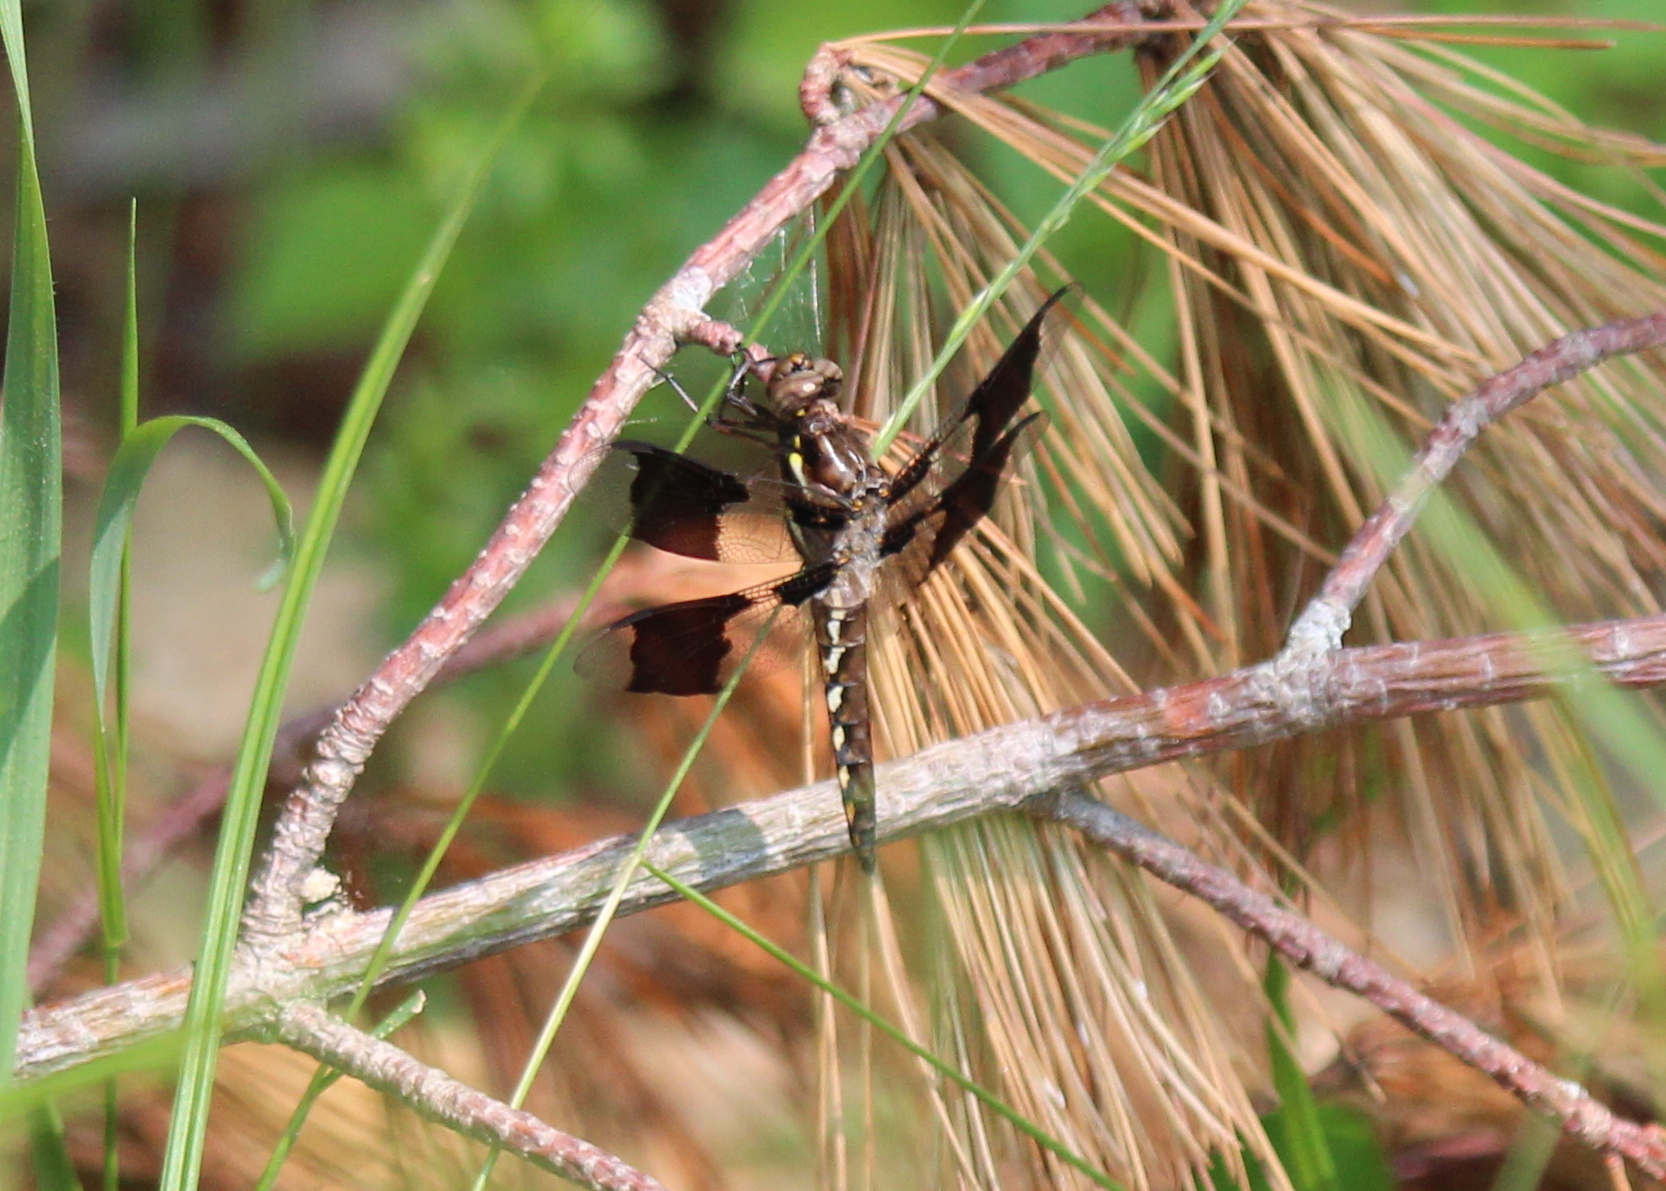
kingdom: Animalia
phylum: Arthropoda
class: Insecta
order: Odonata
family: Libellulidae
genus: Plathemis
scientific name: Plathemis lydia
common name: Common whitetail
